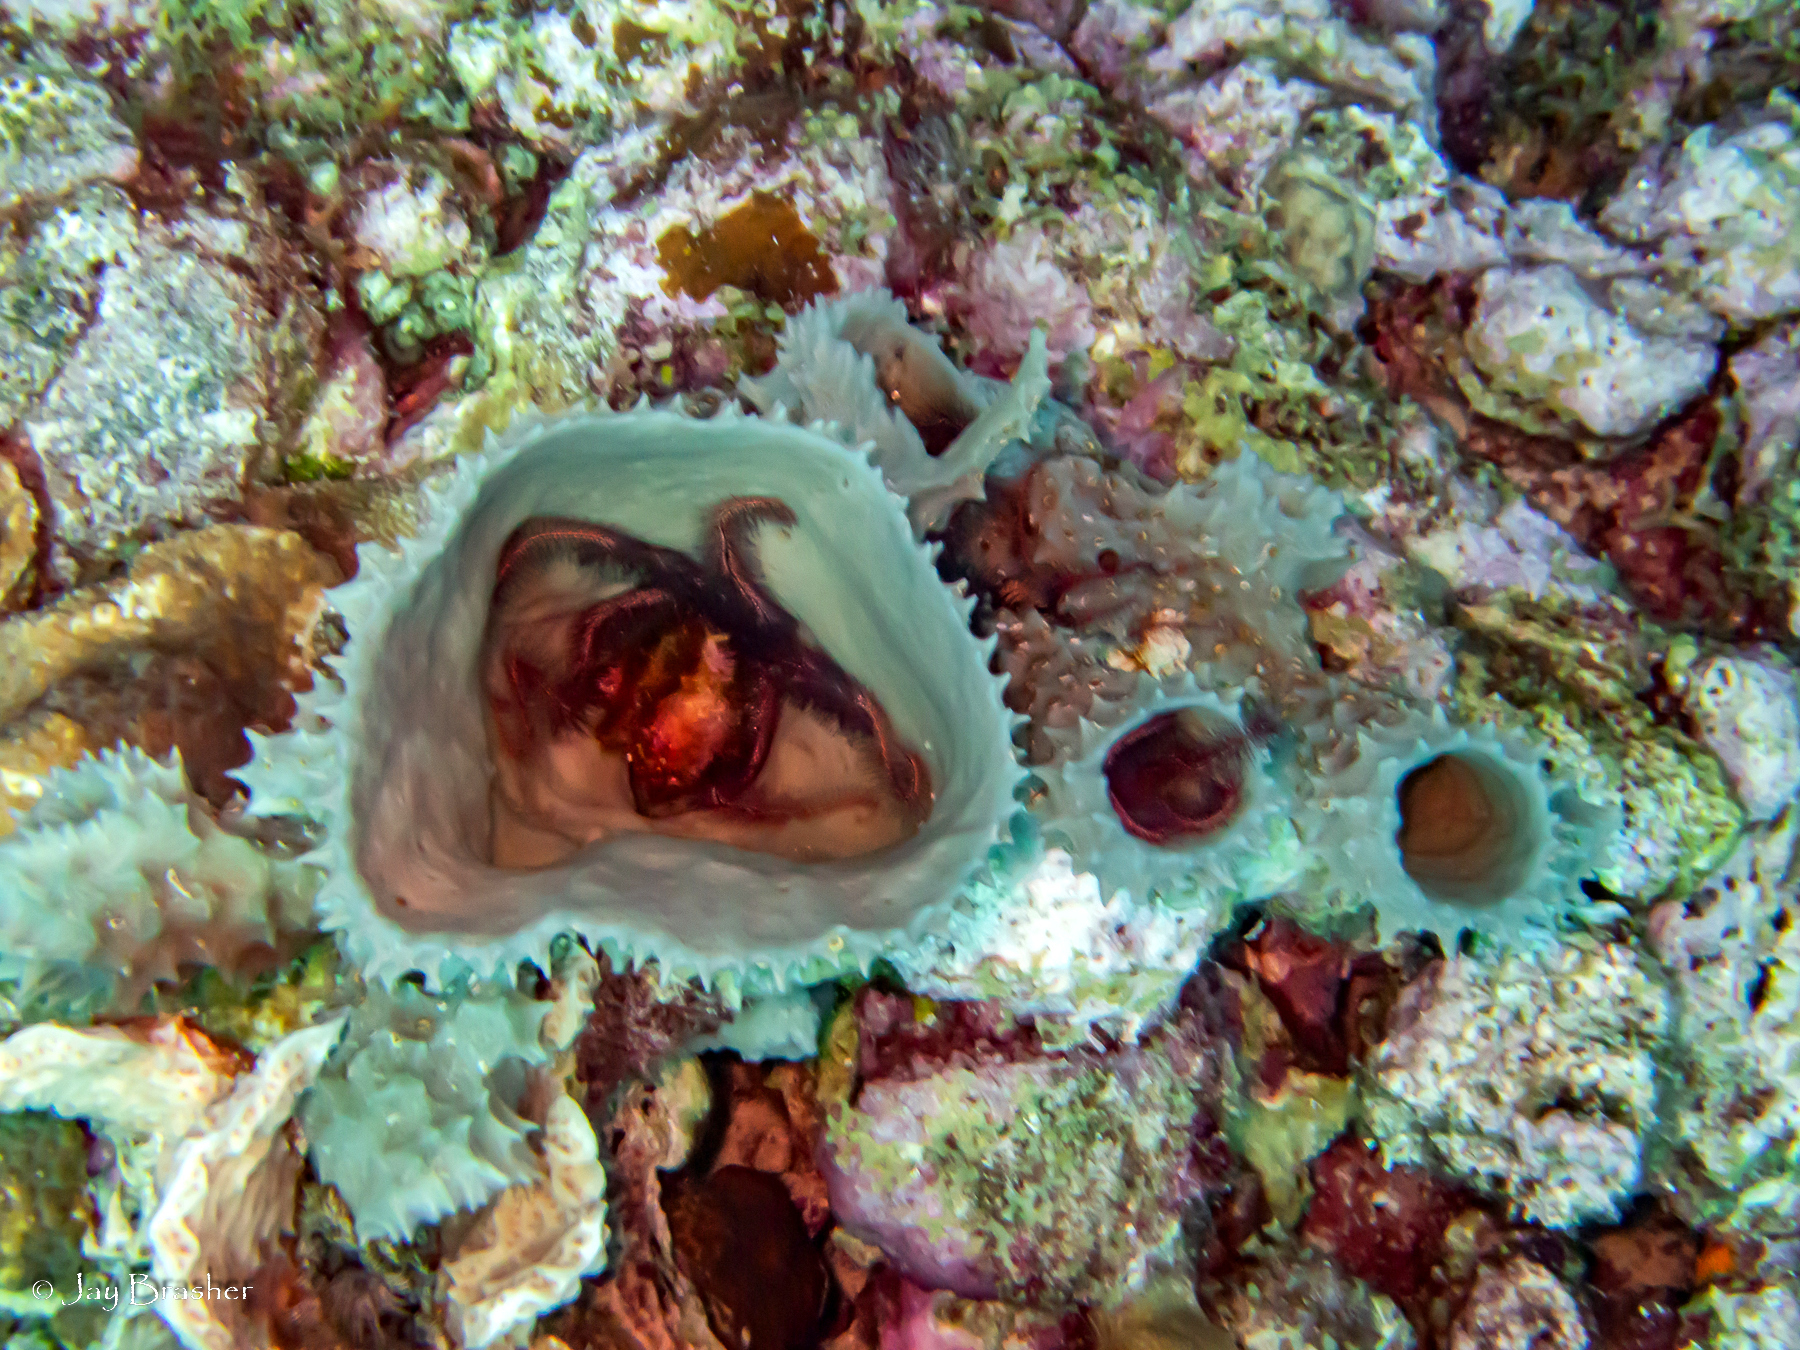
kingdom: Animalia
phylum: Porifera
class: Demospongiae
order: Haplosclerida
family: Callyspongiidae
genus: Callyspongia
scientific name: Callyspongia aculeata
